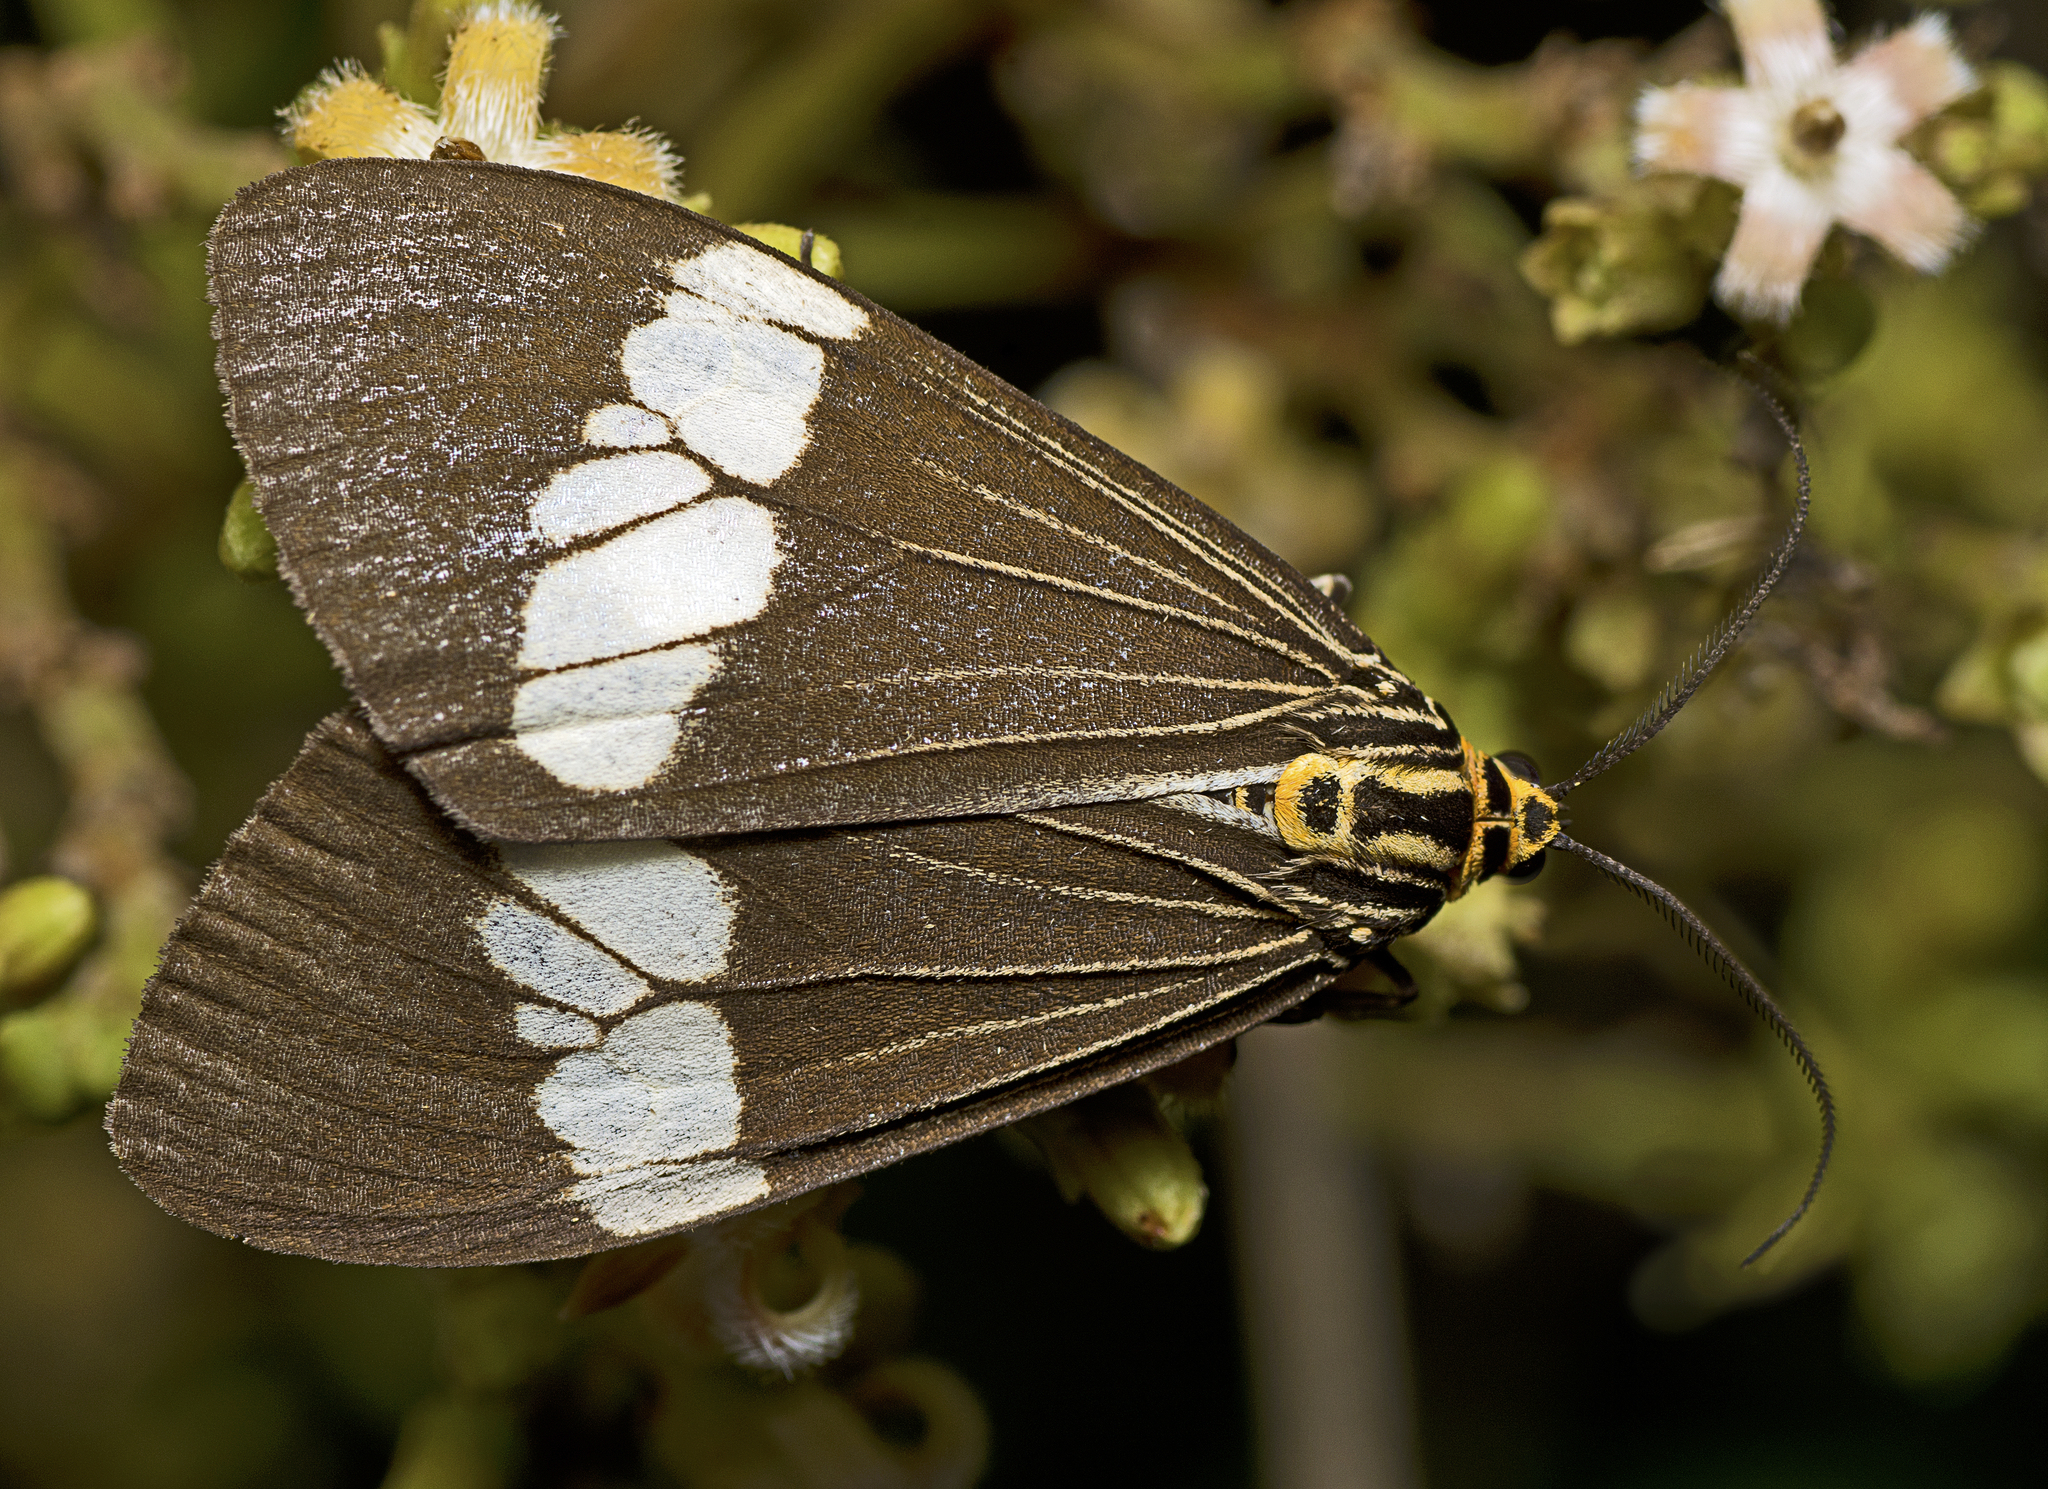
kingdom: Animalia
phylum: Arthropoda
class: Insecta
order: Lepidoptera
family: Erebidae
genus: Nyctemera
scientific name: Nyctemera baulus
